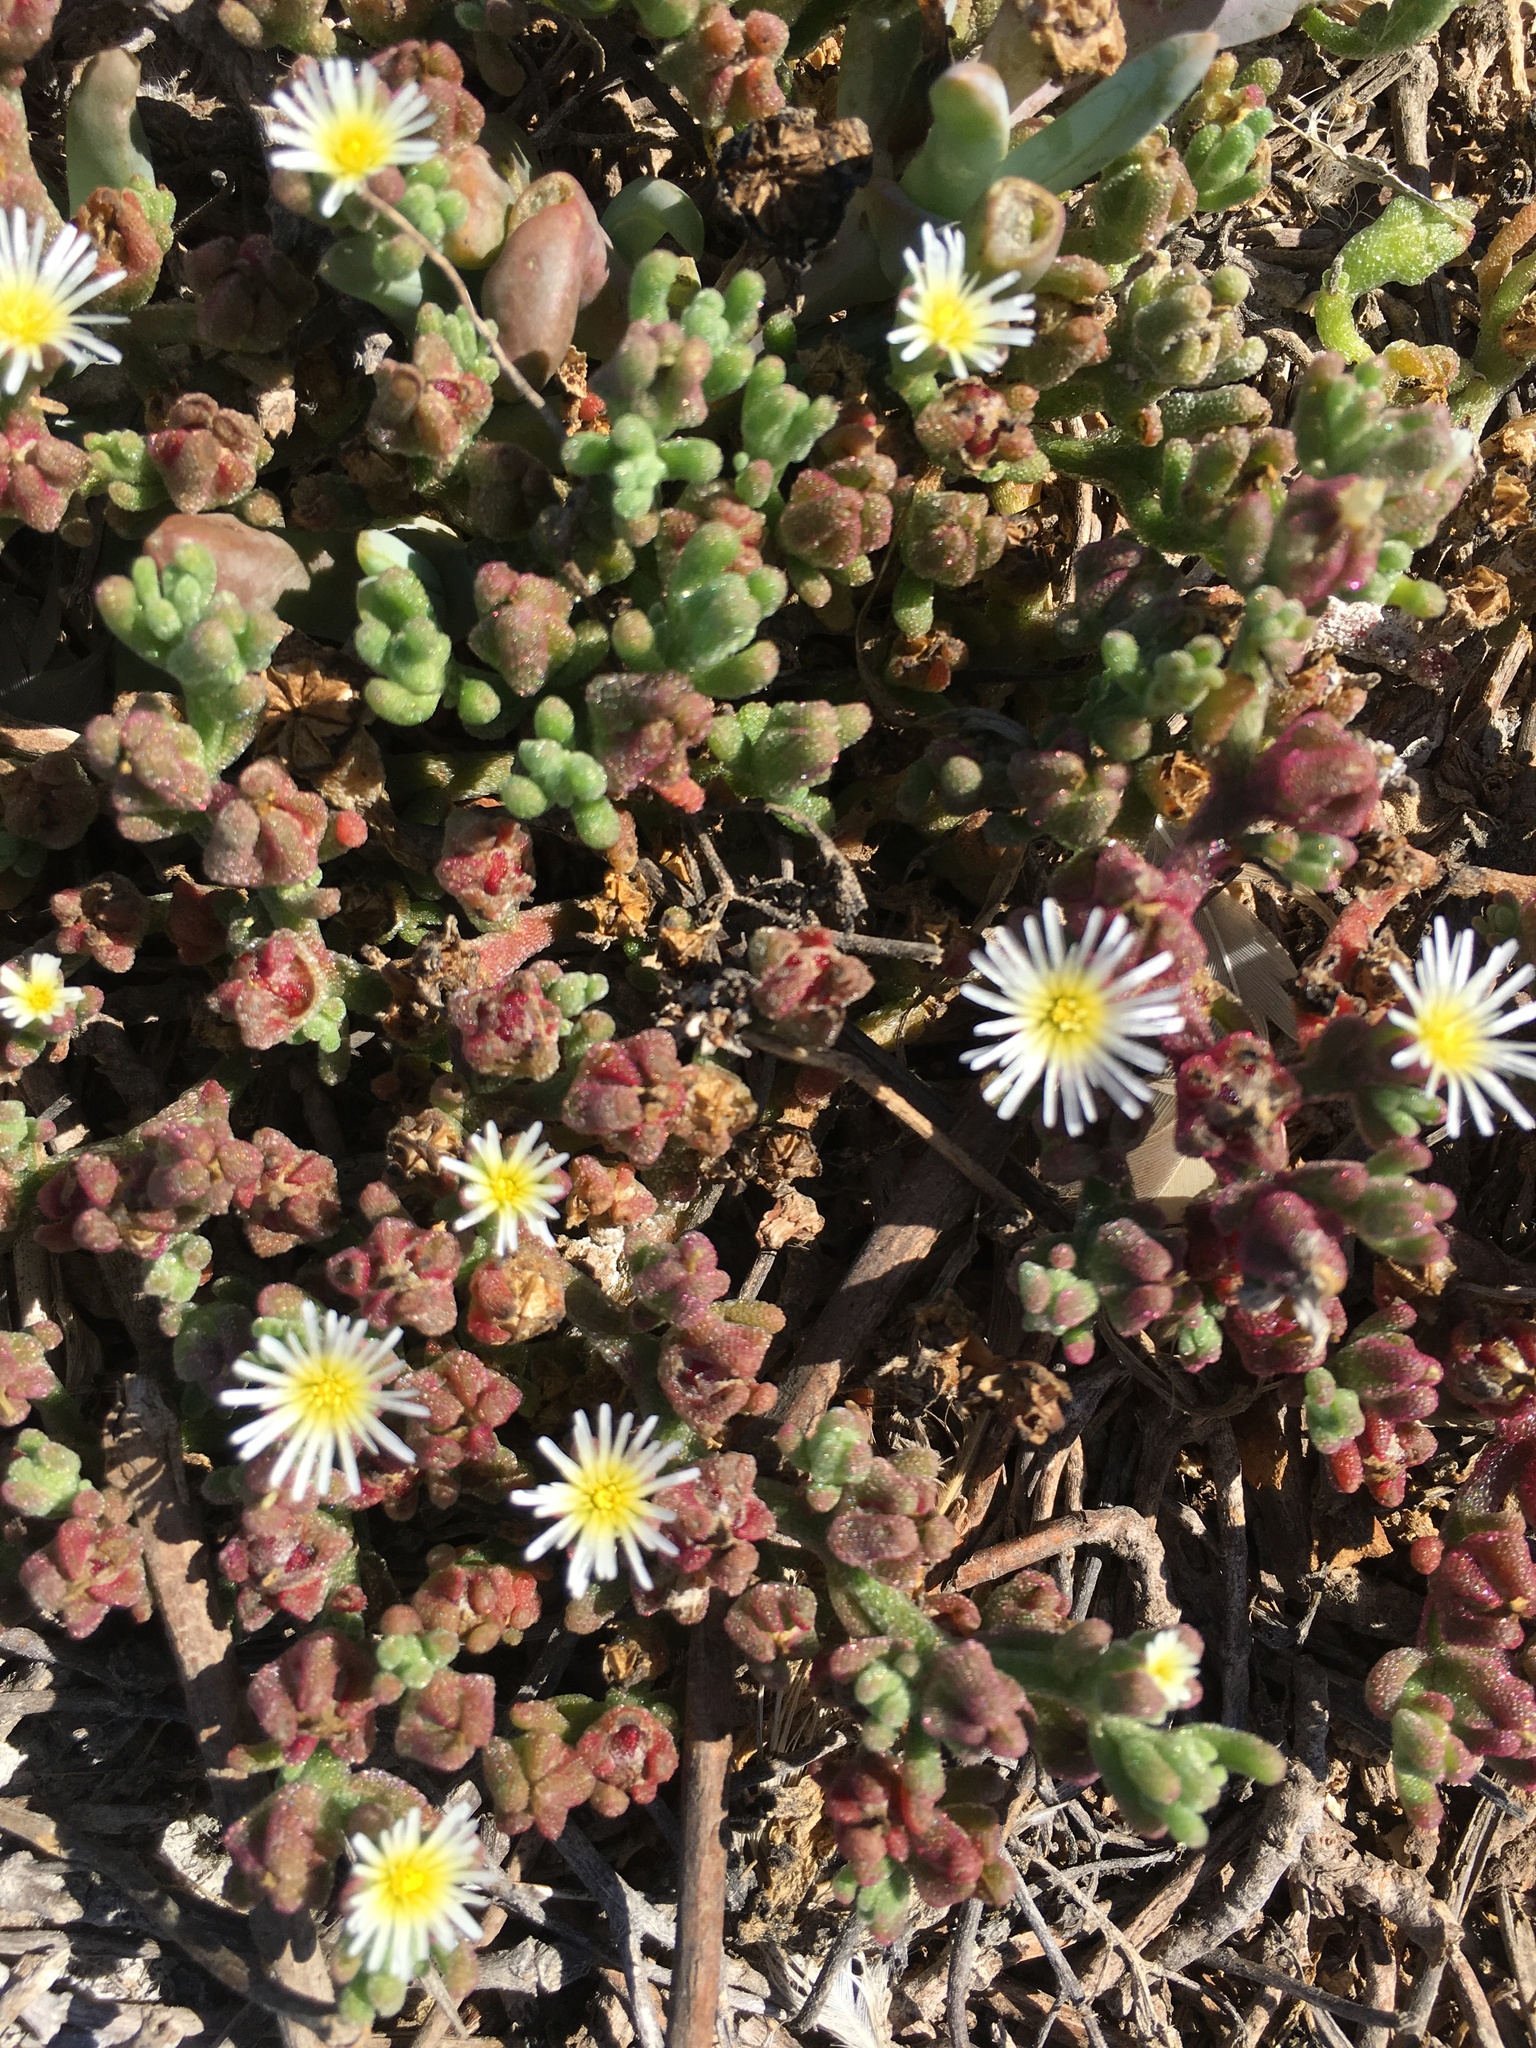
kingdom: Plantae
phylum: Tracheophyta
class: Magnoliopsida
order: Caryophyllales
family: Aizoaceae
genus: Mesembryanthemum
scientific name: Mesembryanthemum nodiflorum
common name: Slenderleaf iceplant
